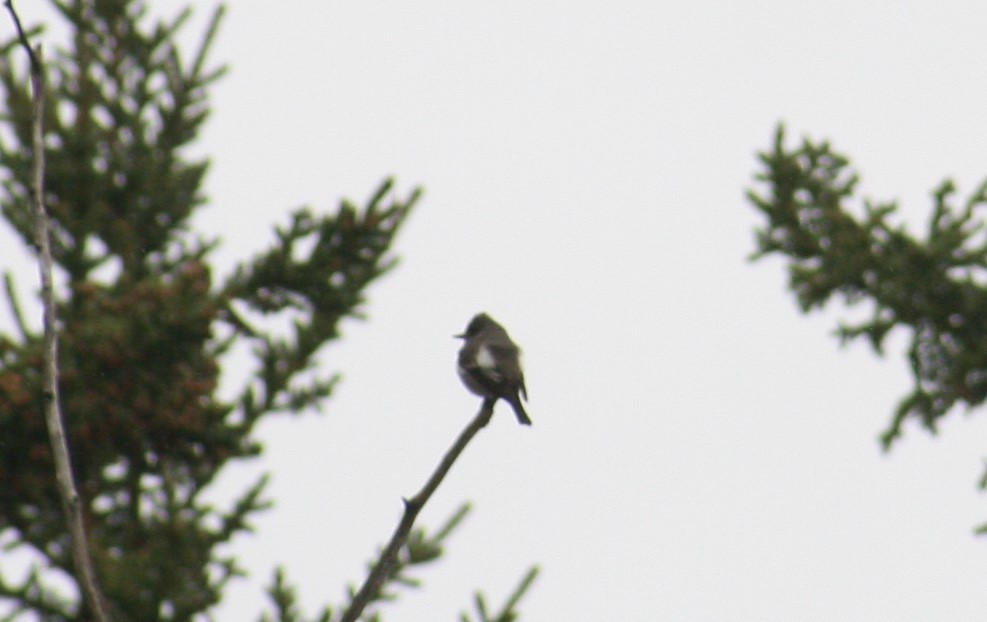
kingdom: Animalia
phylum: Chordata
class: Aves
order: Passeriformes
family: Tyrannidae
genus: Contopus
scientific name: Contopus cooperi
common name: Olive-sided flycatcher
